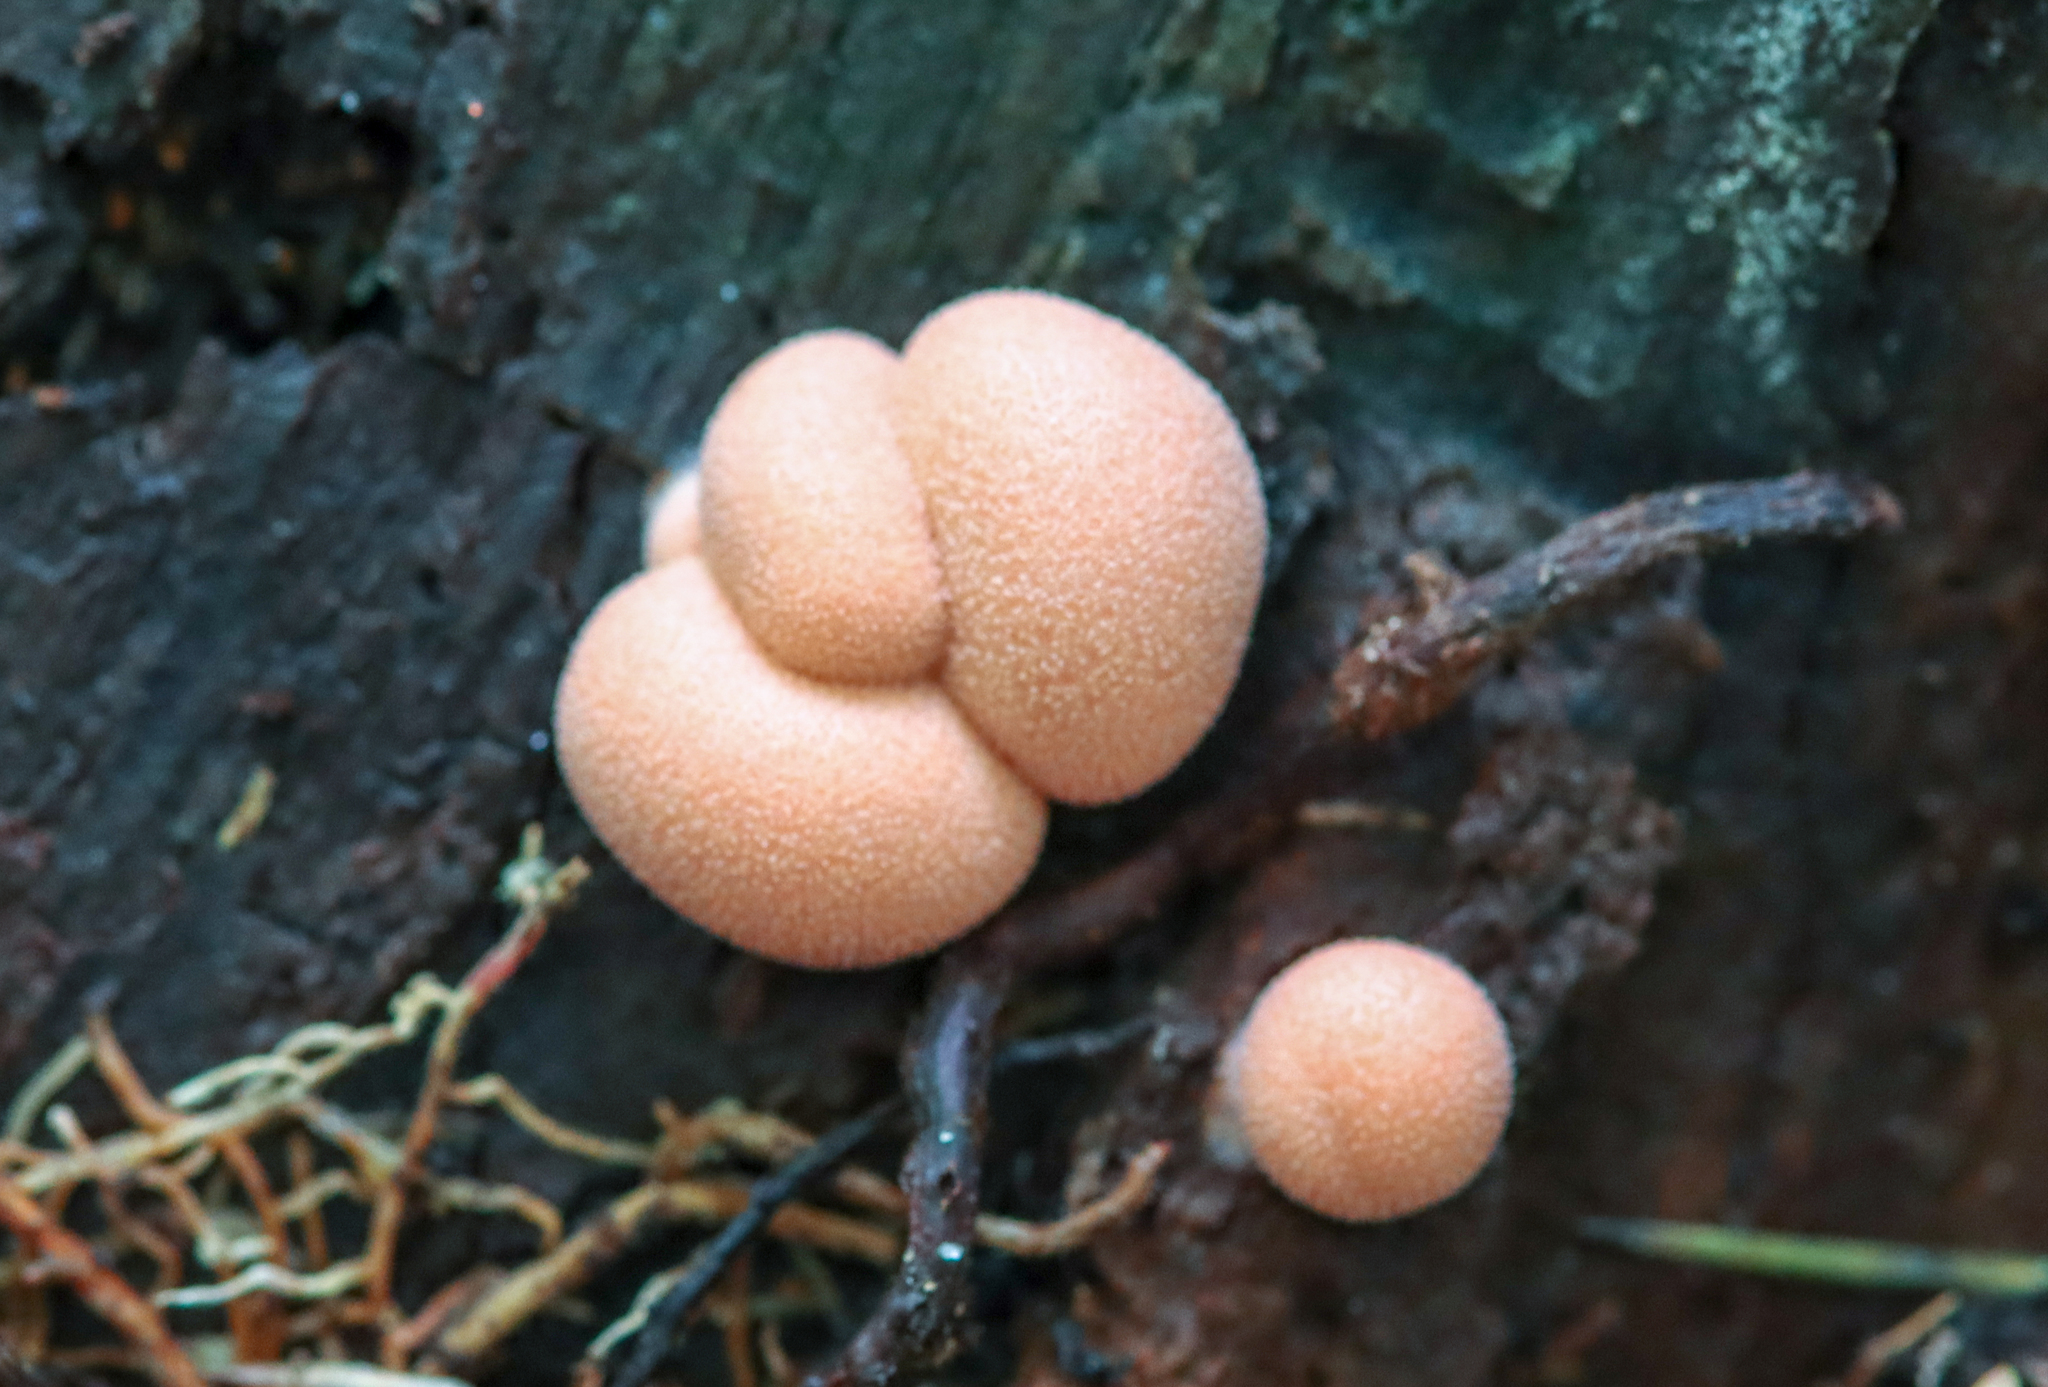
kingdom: Protozoa
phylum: Mycetozoa
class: Myxomycetes
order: Cribrariales
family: Tubiferaceae
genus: Lycogala
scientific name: Lycogala epidendrum
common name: Wolf's milk
